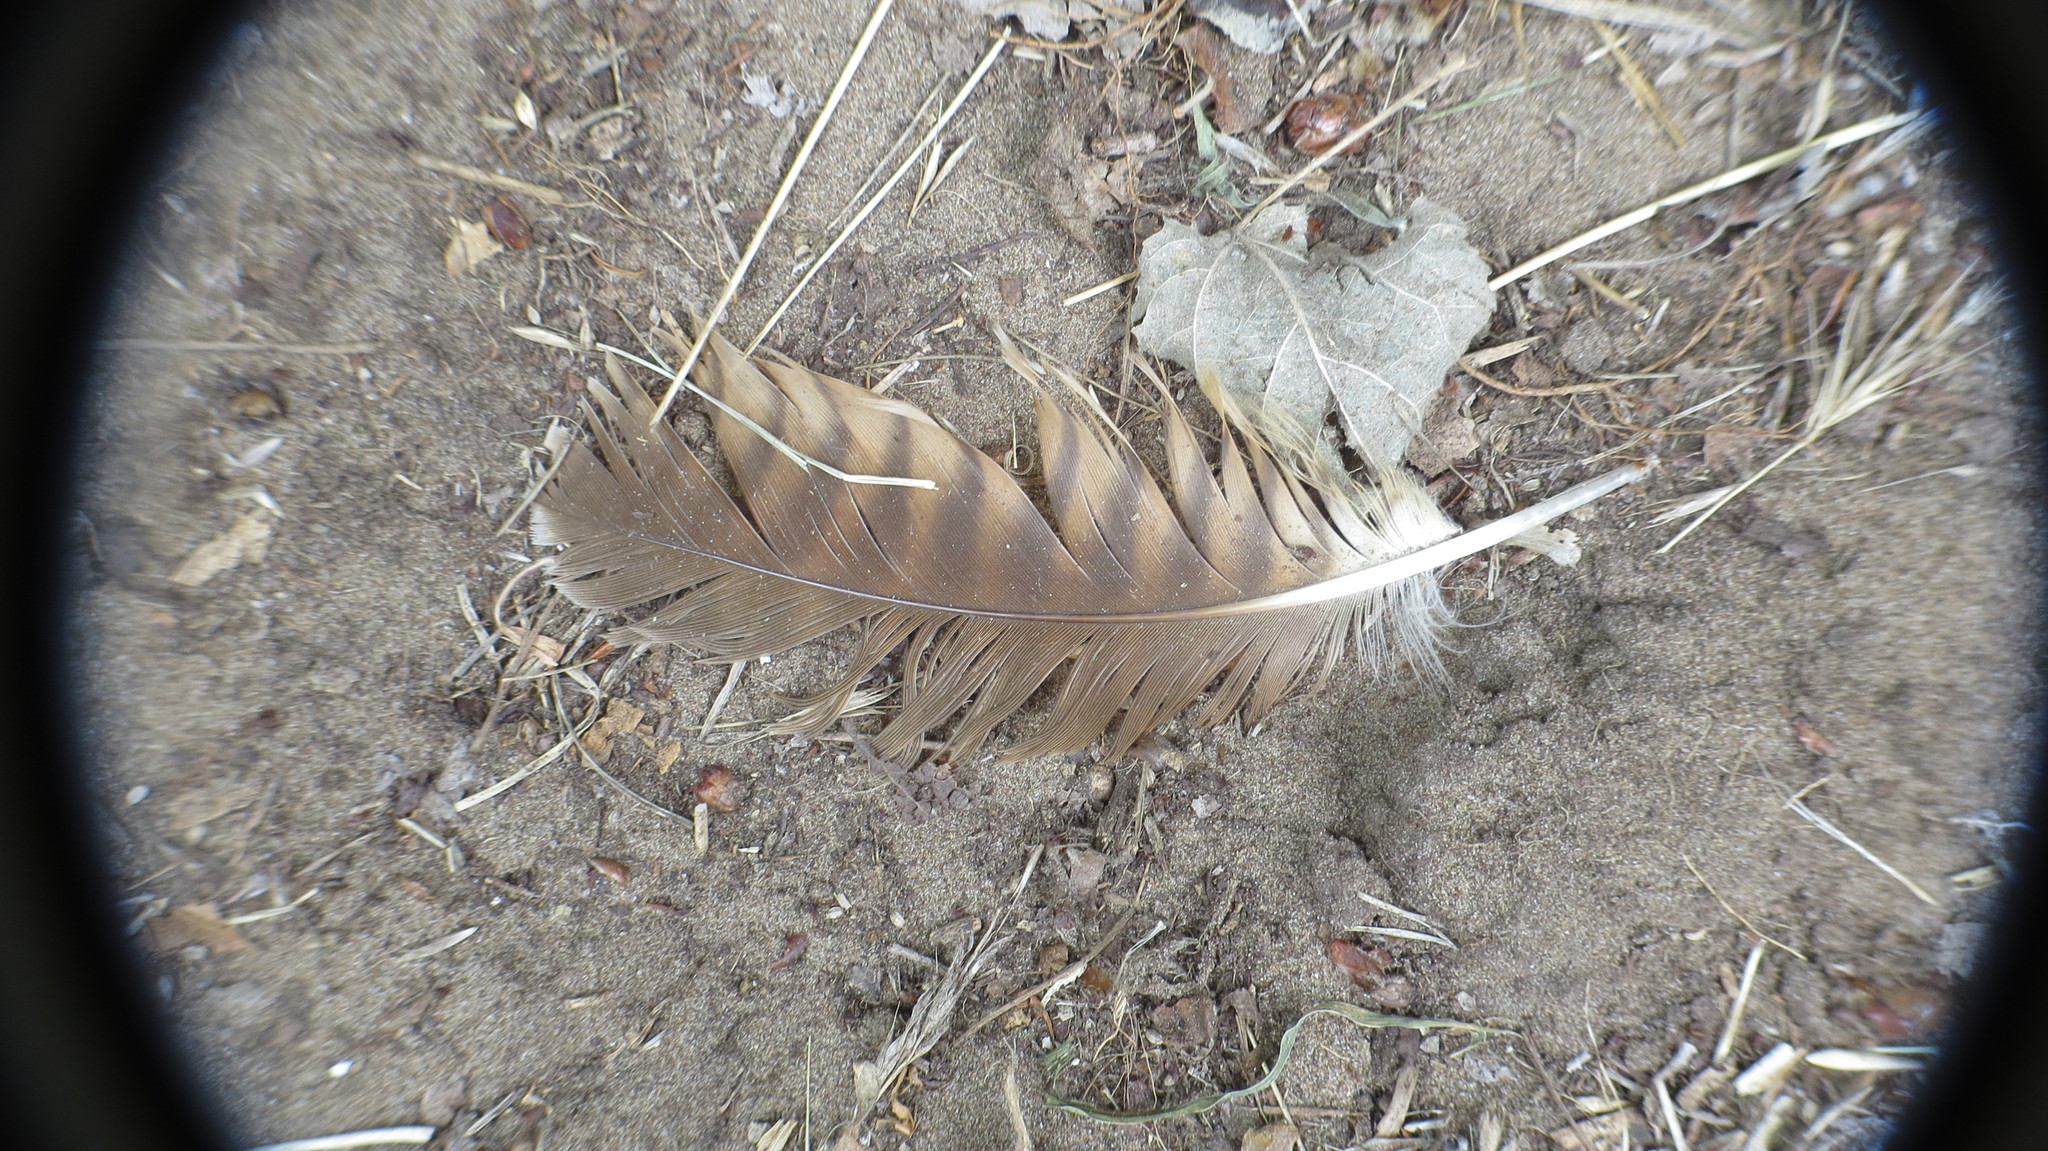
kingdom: Animalia
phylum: Chordata
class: Aves
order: Falconiformes
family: Falconidae
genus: Daptrius
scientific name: Daptrius
